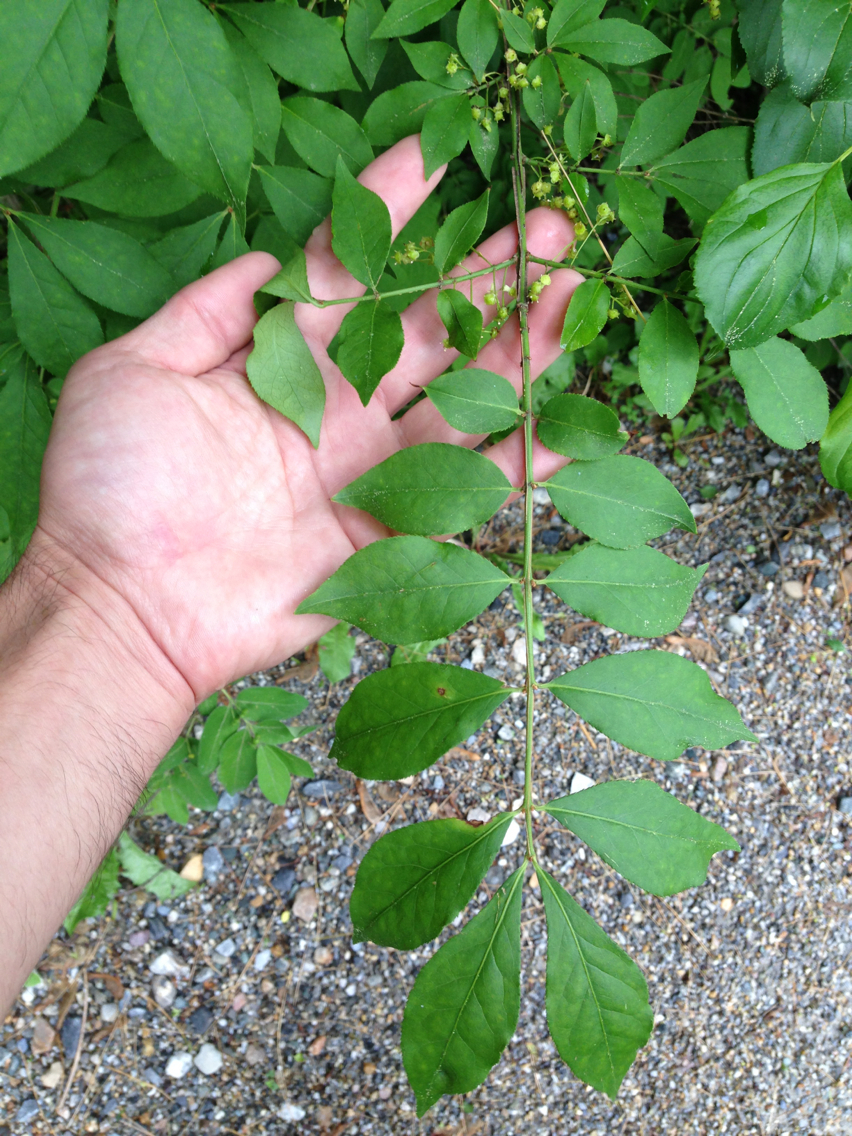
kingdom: Plantae
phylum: Tracheophyta
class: Magnoliopsida
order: Celastrales
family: Celastraceae
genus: Euonymus
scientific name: Euonymus alatus
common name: Winged euonymus
